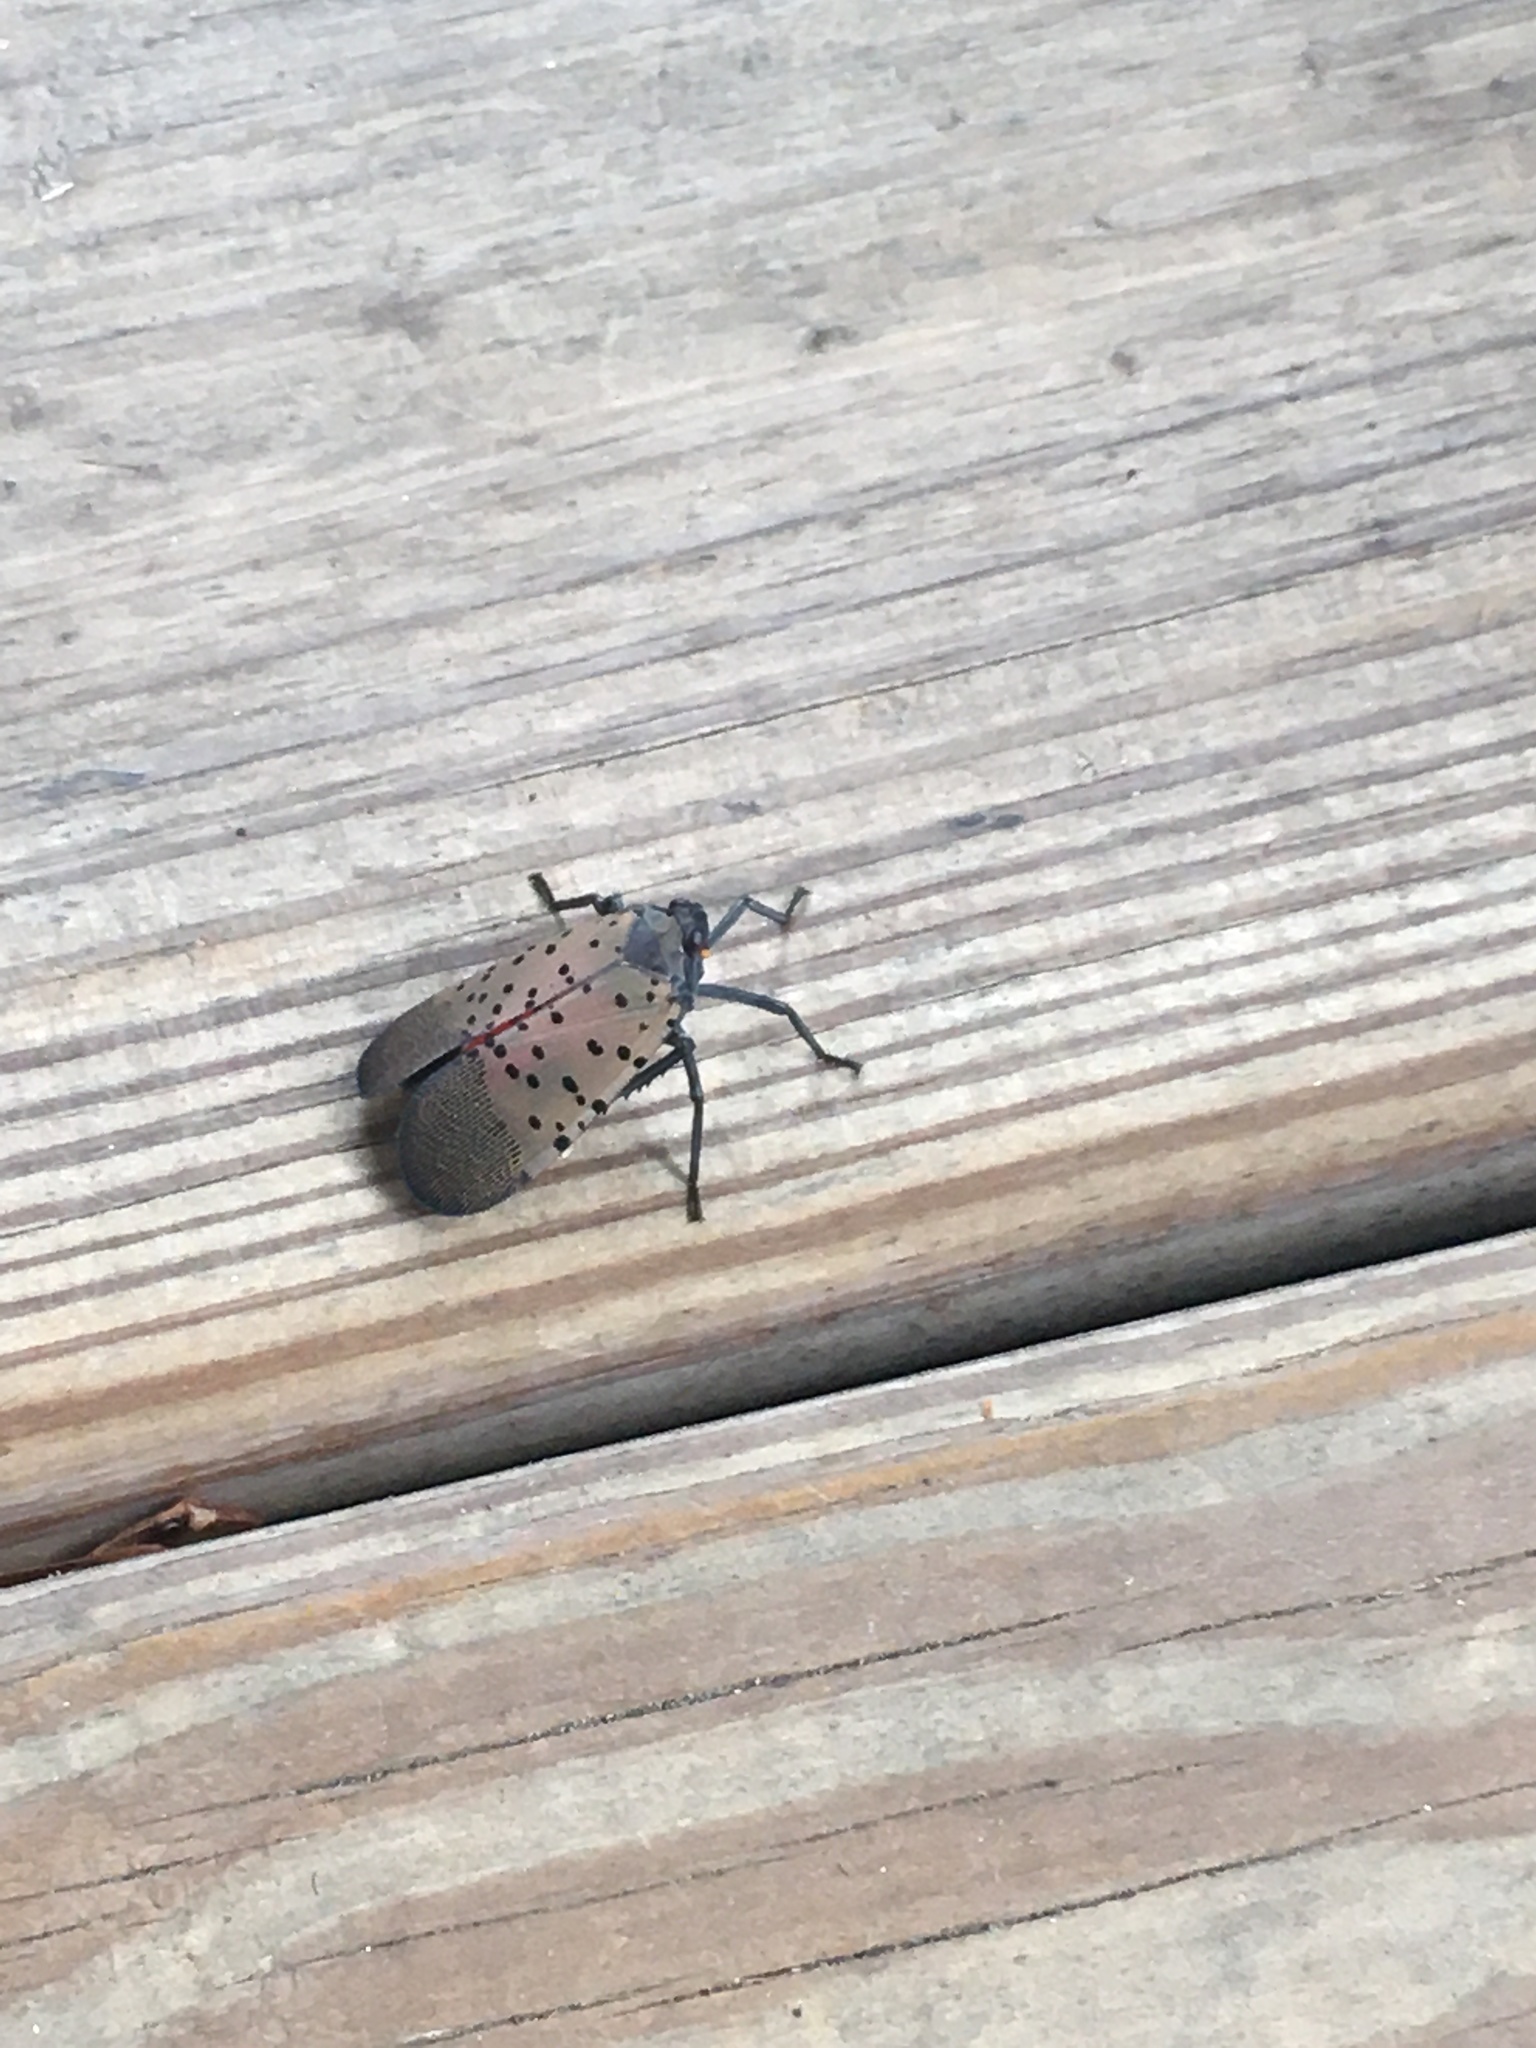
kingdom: Animalia
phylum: Arthropoda
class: Insecta
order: Hemiptera
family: Fulgoridae
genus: Lycorma
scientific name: Lycorma delicatula
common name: Spotted lanternfly
